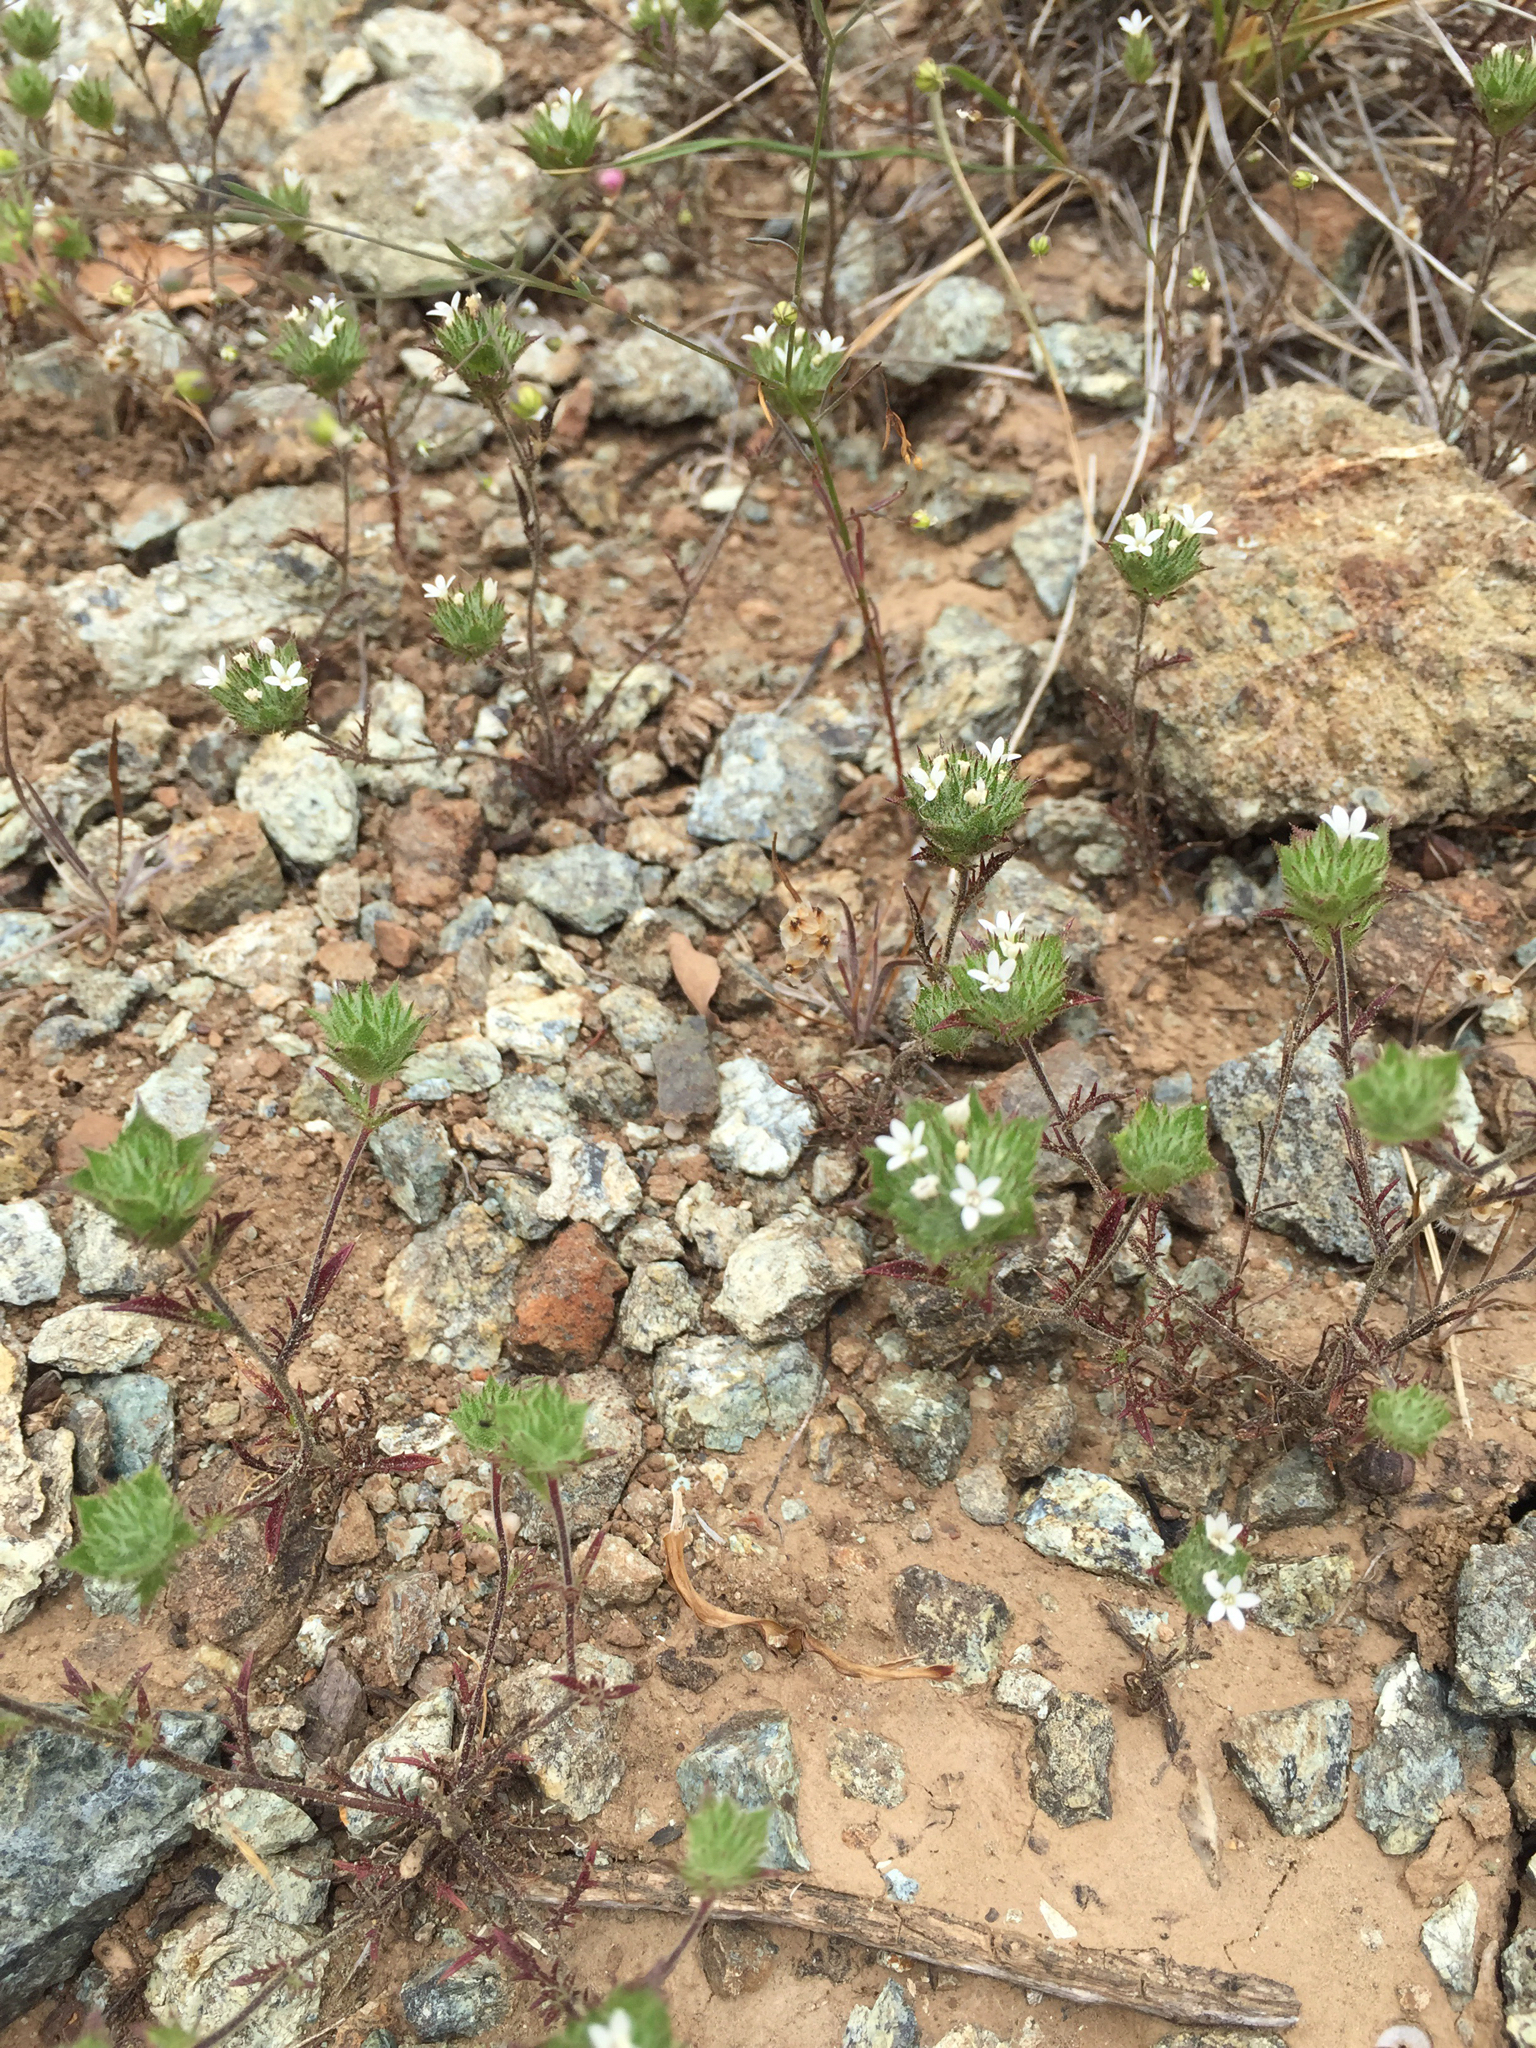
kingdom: Plantae
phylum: Tracheophyta
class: Magnoliopsida
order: Ericales
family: Polemoniaceae
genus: Navarretia
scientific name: Navarretia rosulata
